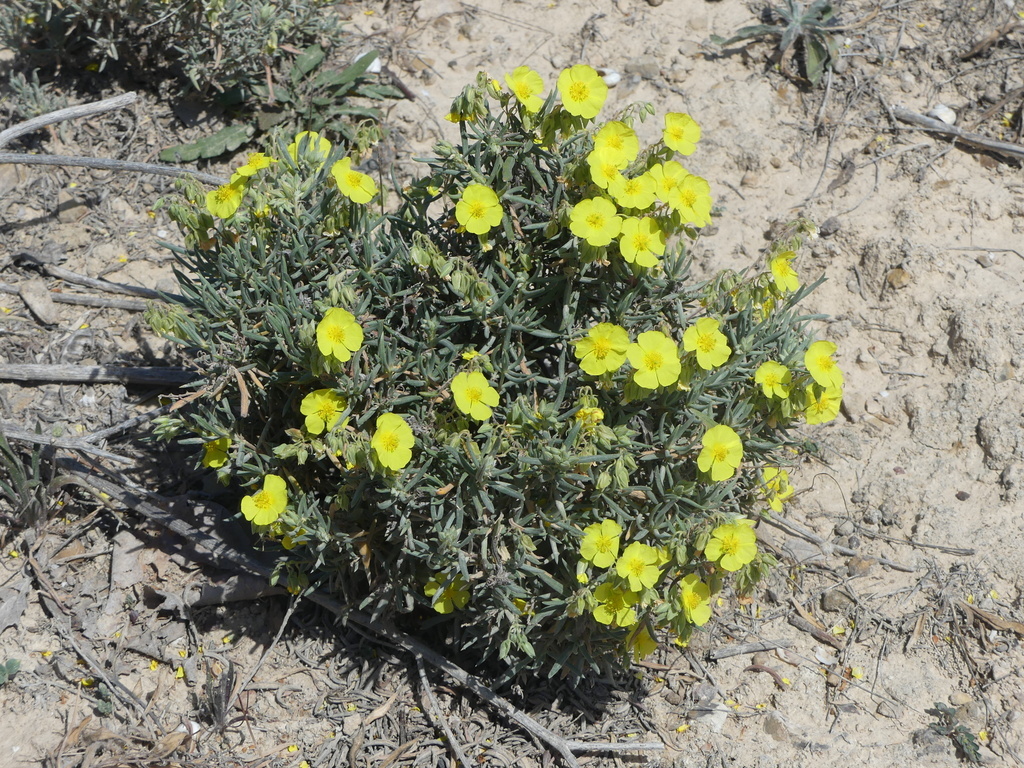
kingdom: Plantae
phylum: Tracheophyta
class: Magnoliopsida
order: Malvales
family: Cistaceae
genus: Helianthemum
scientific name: Helianthemum syriacum
